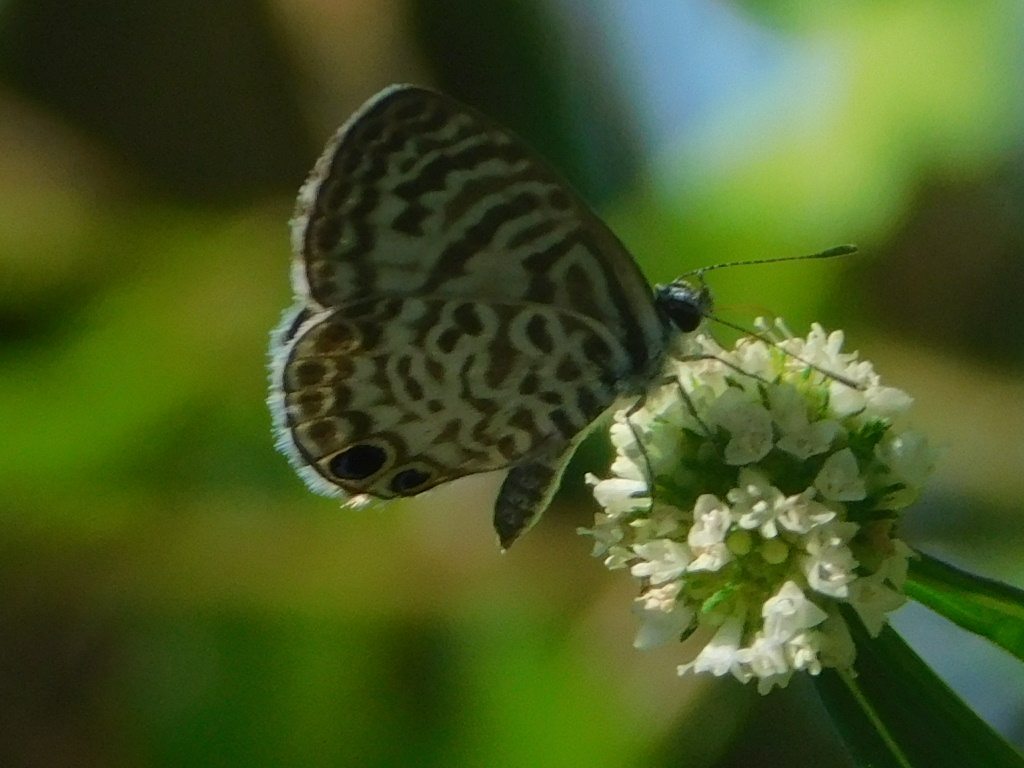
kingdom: Animalia
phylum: Arthropoda
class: Insecta
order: Lepidoptera
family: Lycaenidae
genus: Leptotes
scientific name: Leptotes cassius
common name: Cassius blue
